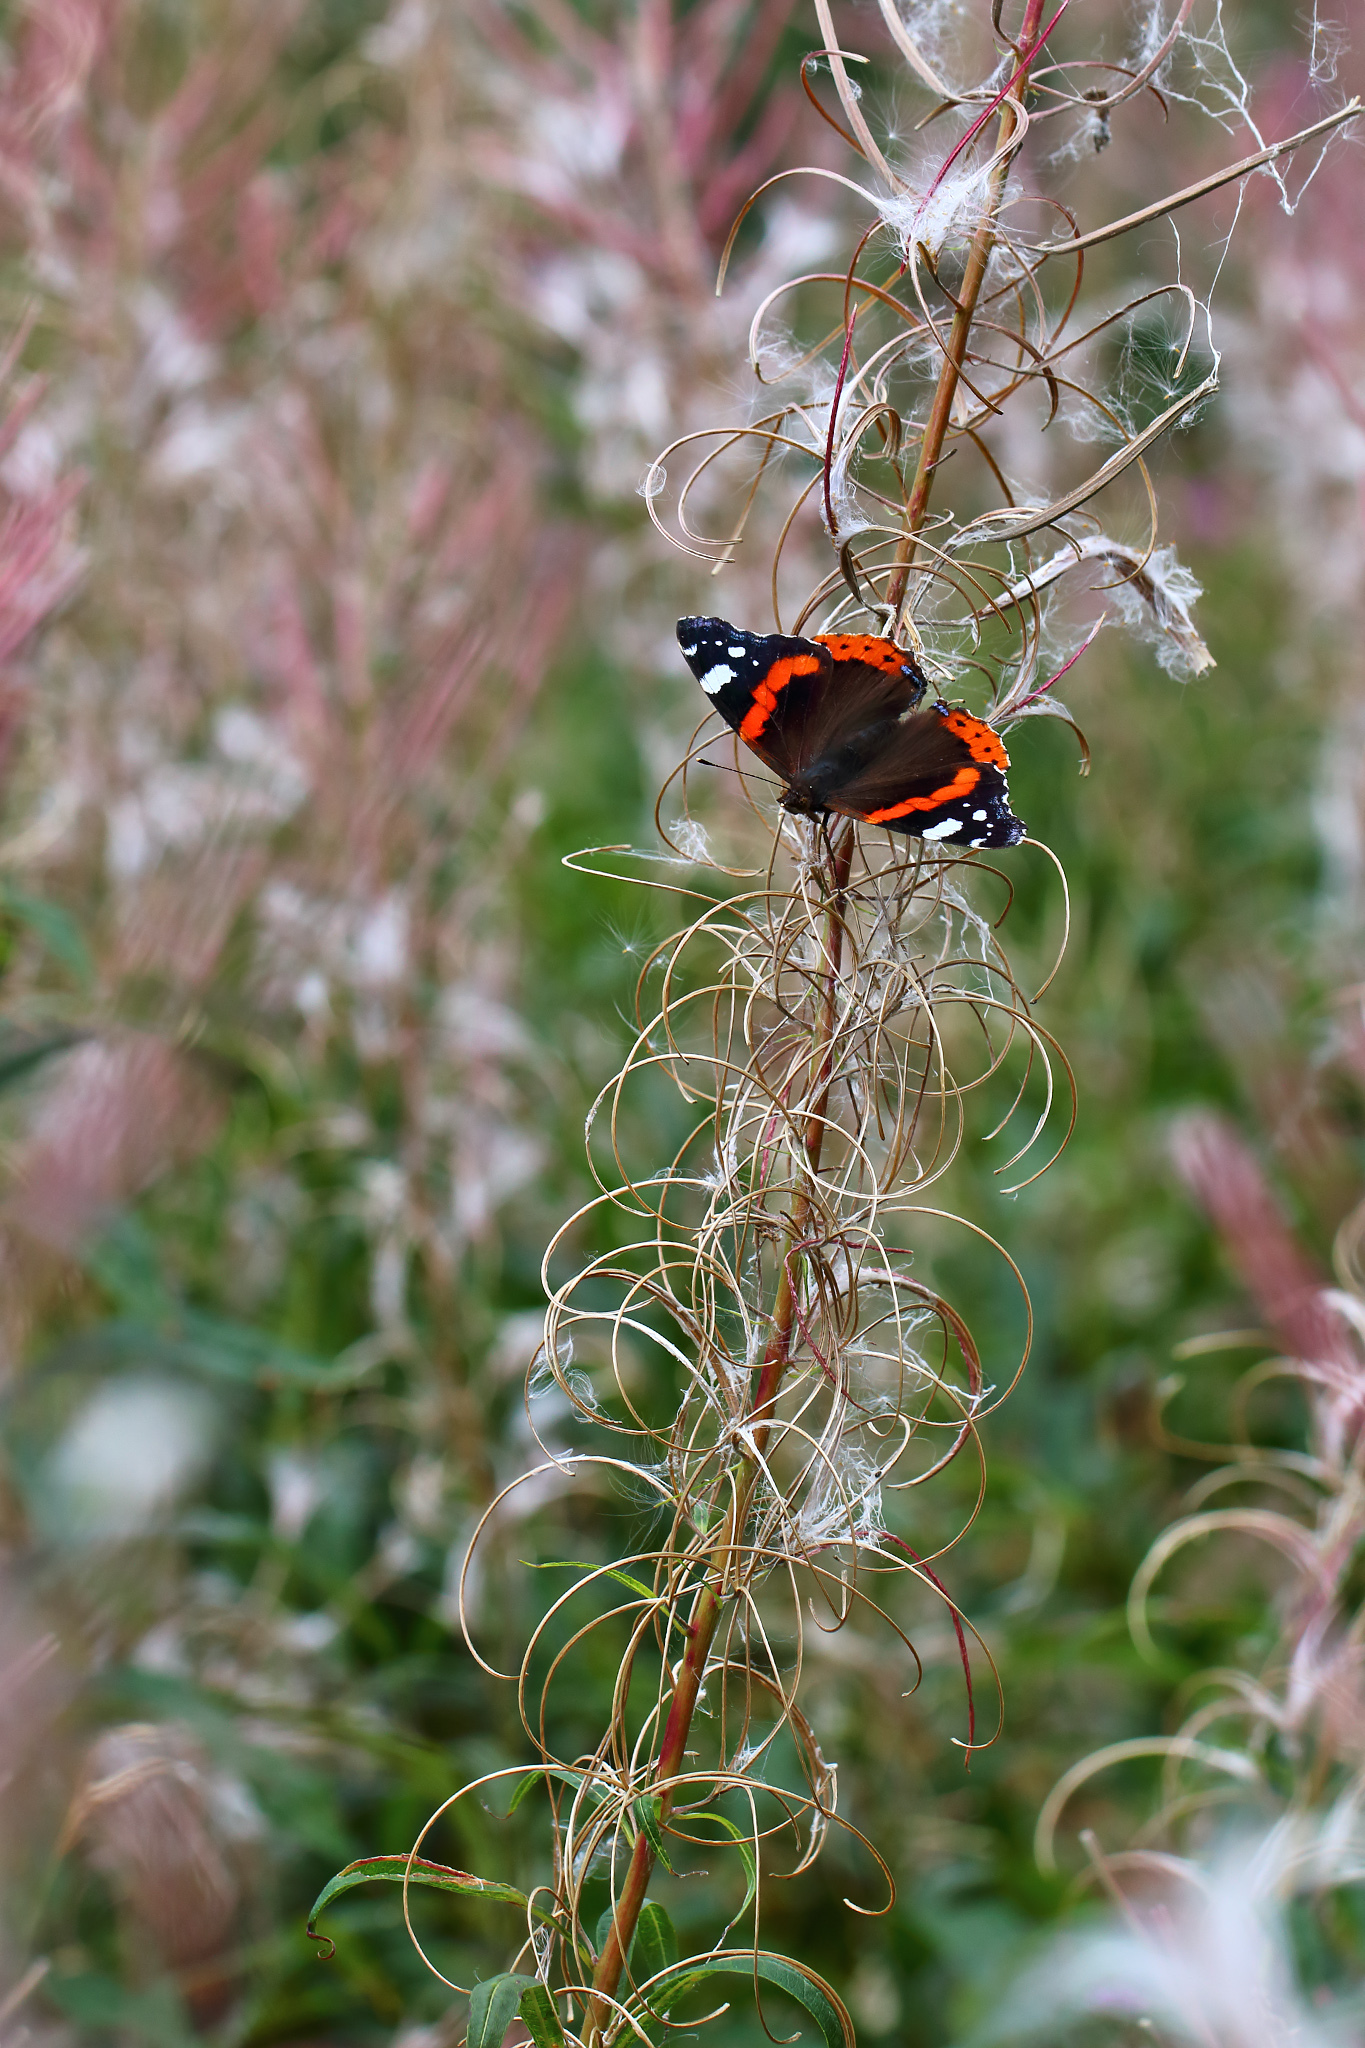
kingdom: Animalia
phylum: Arthropoda
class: Insecta
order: Lepidoptera
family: Nymphalidae
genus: Vanessa
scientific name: Vanessa atalanta
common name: Red admiral
